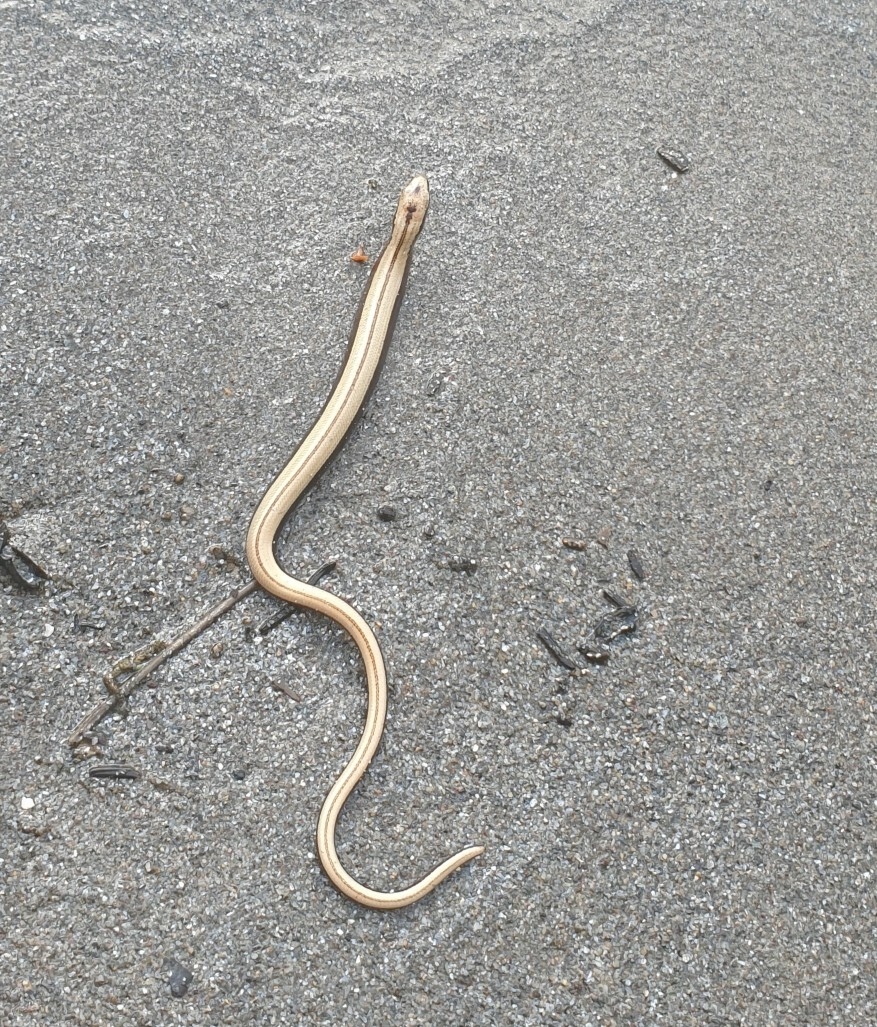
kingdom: Animalia
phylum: Chordata
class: Squamata
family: Anguidae
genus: Anguis
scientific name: Anguis fragilis
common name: Slow worm
